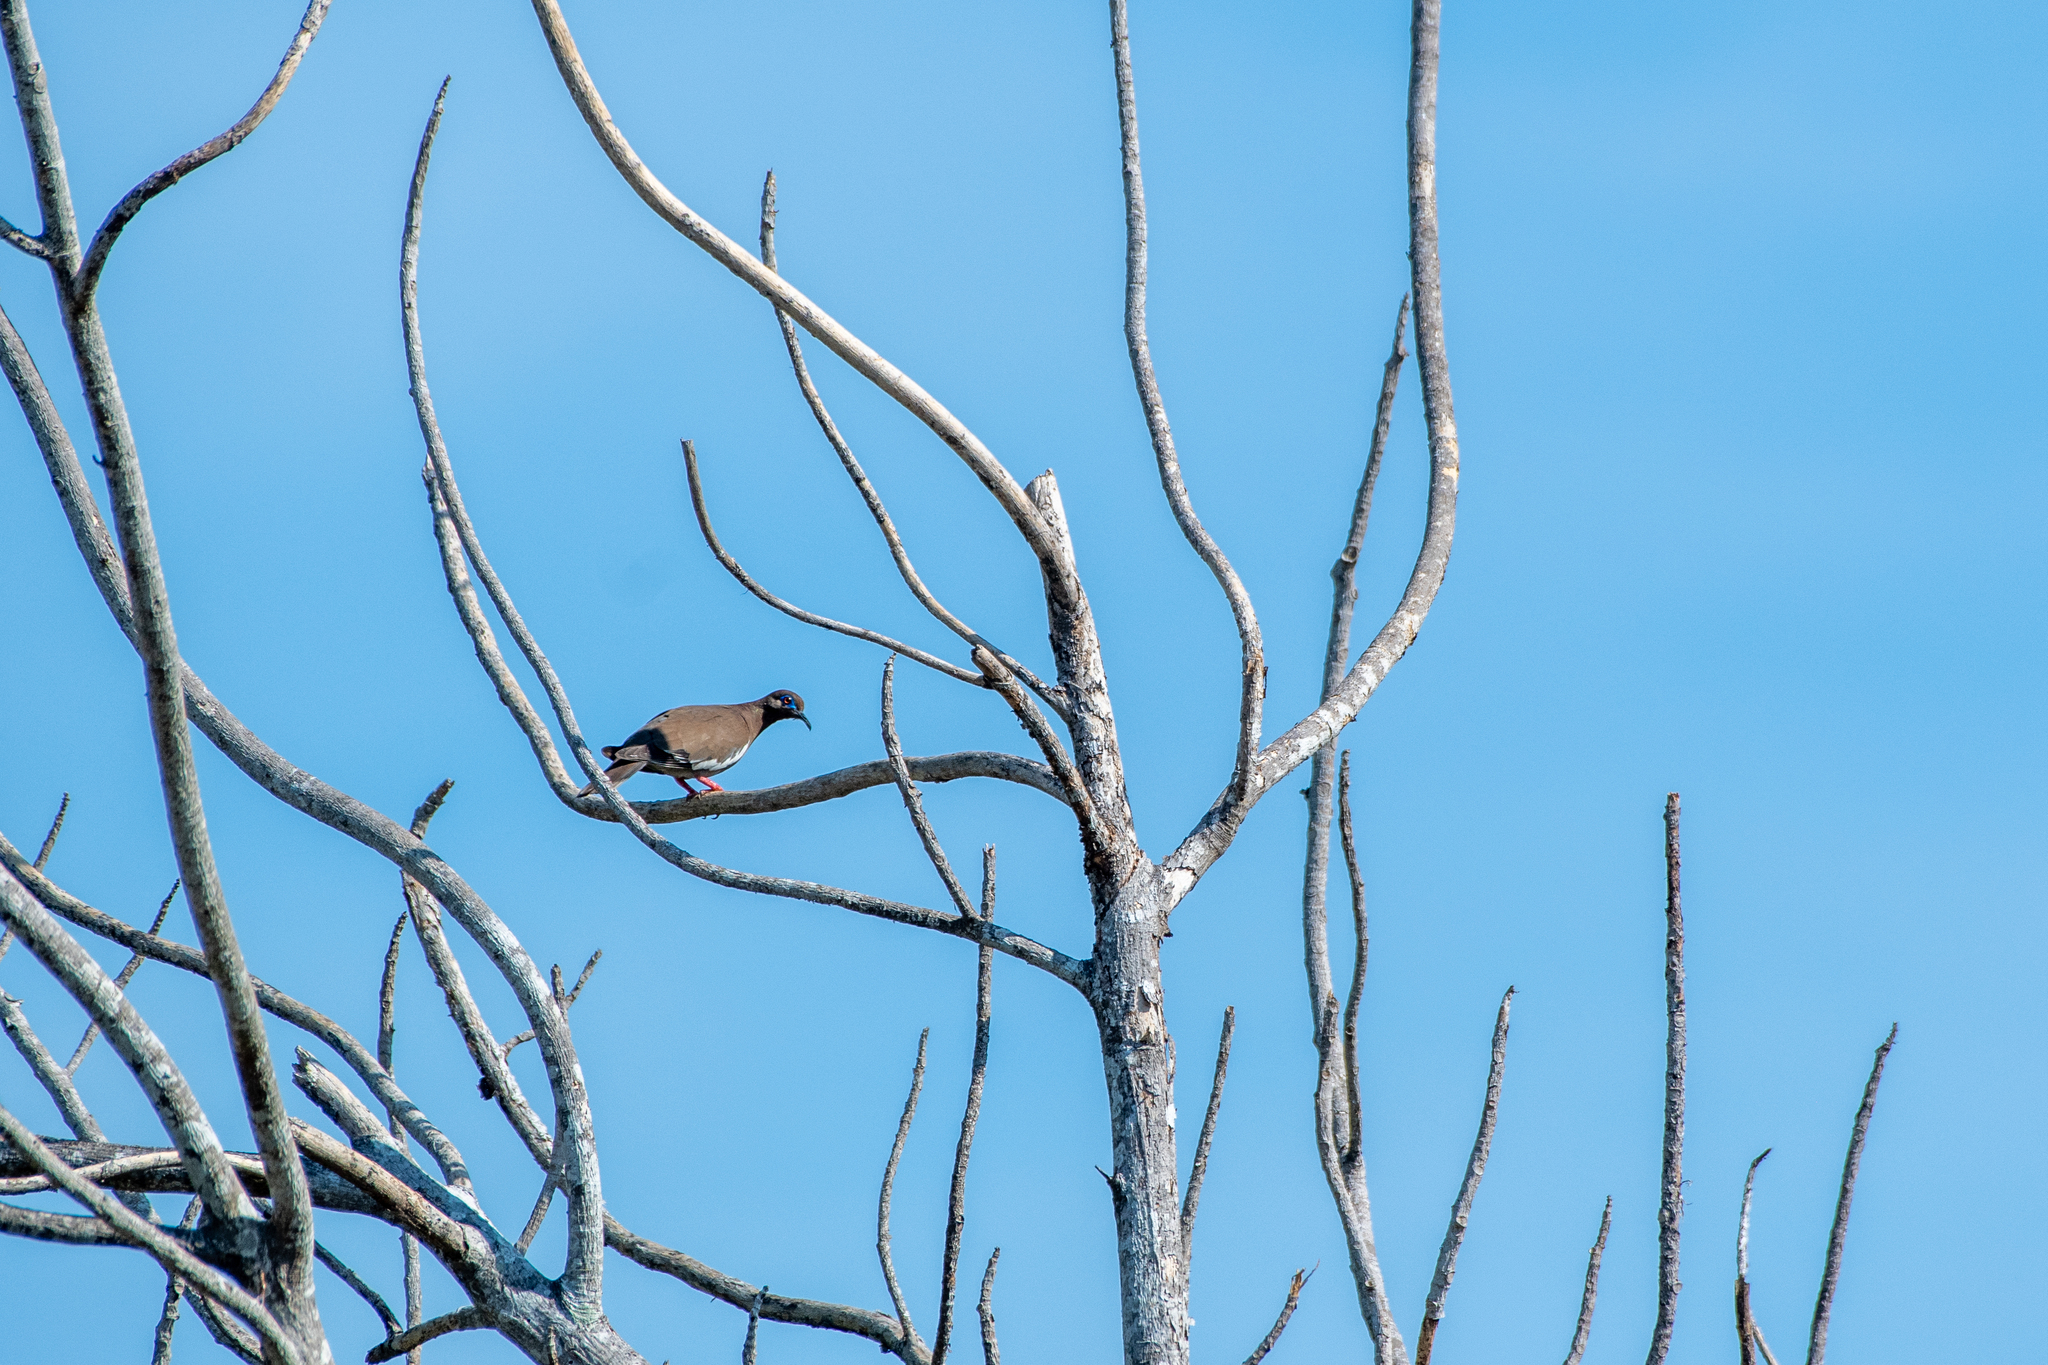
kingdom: Animalia
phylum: Chordata
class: Aves
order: Columbiformes
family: Columbidae
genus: Zenaida
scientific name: Zenaida asiatica
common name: White-winged dove
